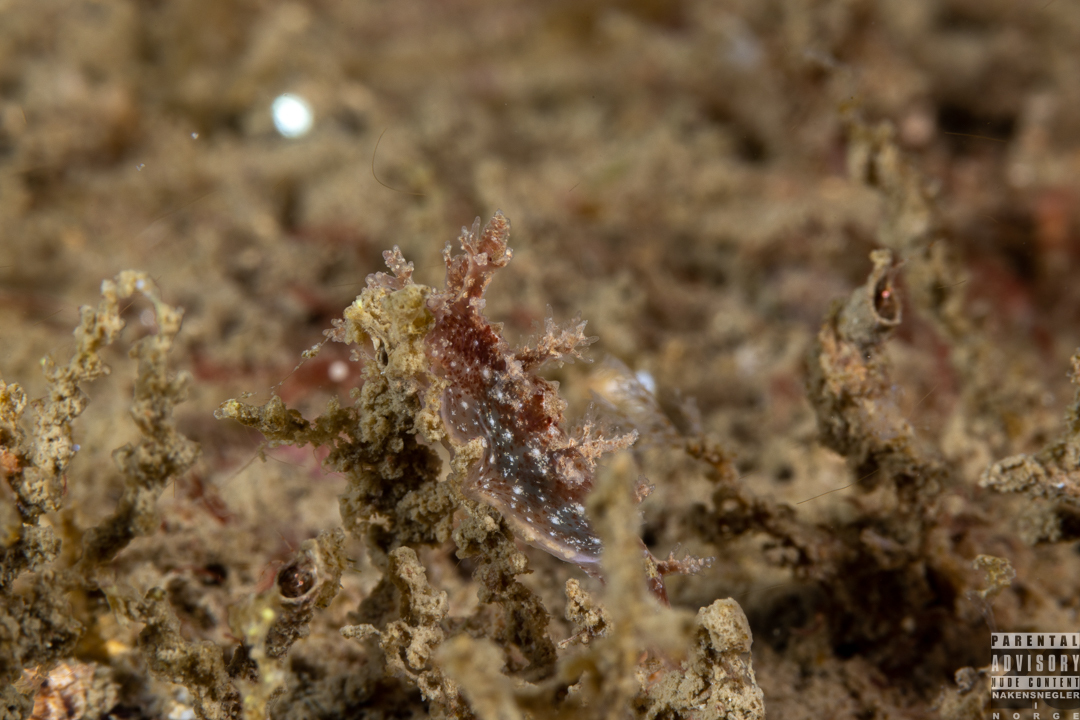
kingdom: Animalia
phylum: Mollusca
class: Gastropoda
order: Nudibranchia
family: Dendronotidae
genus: Dendronotus
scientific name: Dendronotus frondosus
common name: Bushy-backed nudibranch
